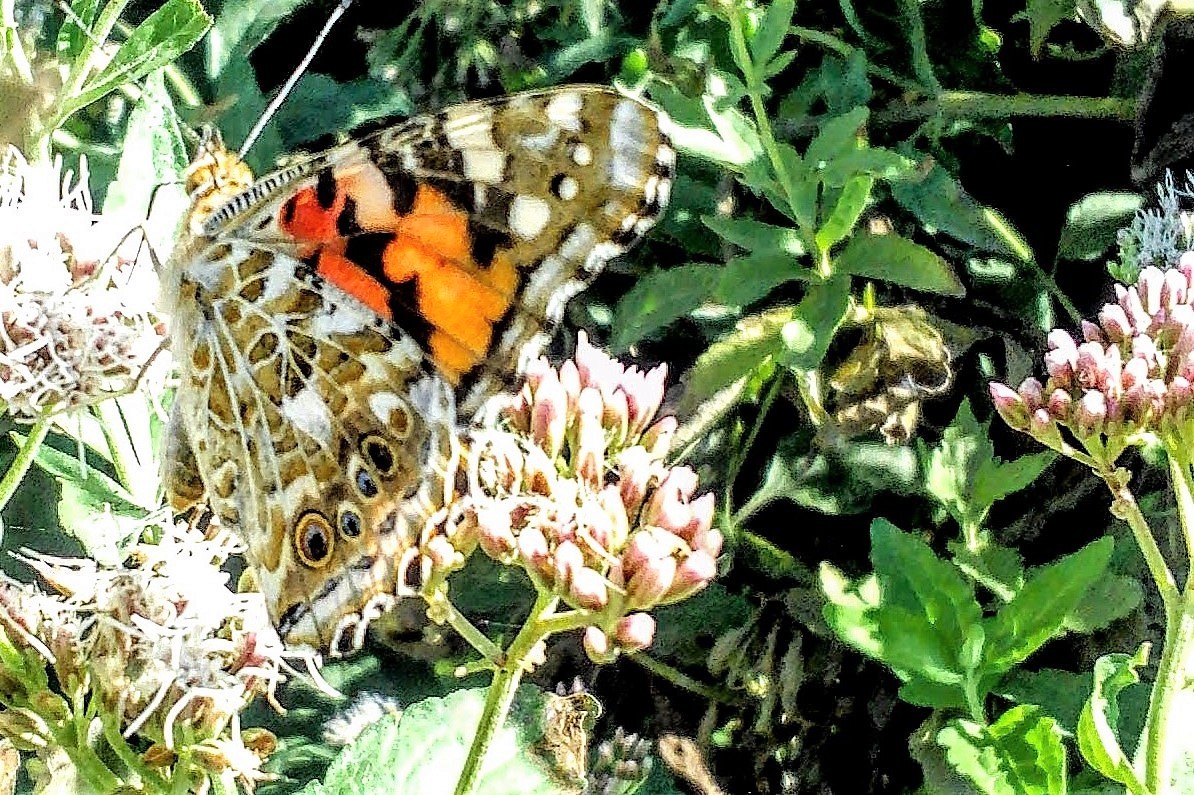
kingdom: Animalia
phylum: Arthropoda
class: Insecta
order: Lepidoptera
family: Nymphalidae
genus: Vanessa
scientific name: Vanessa cardui
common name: Painted lady
